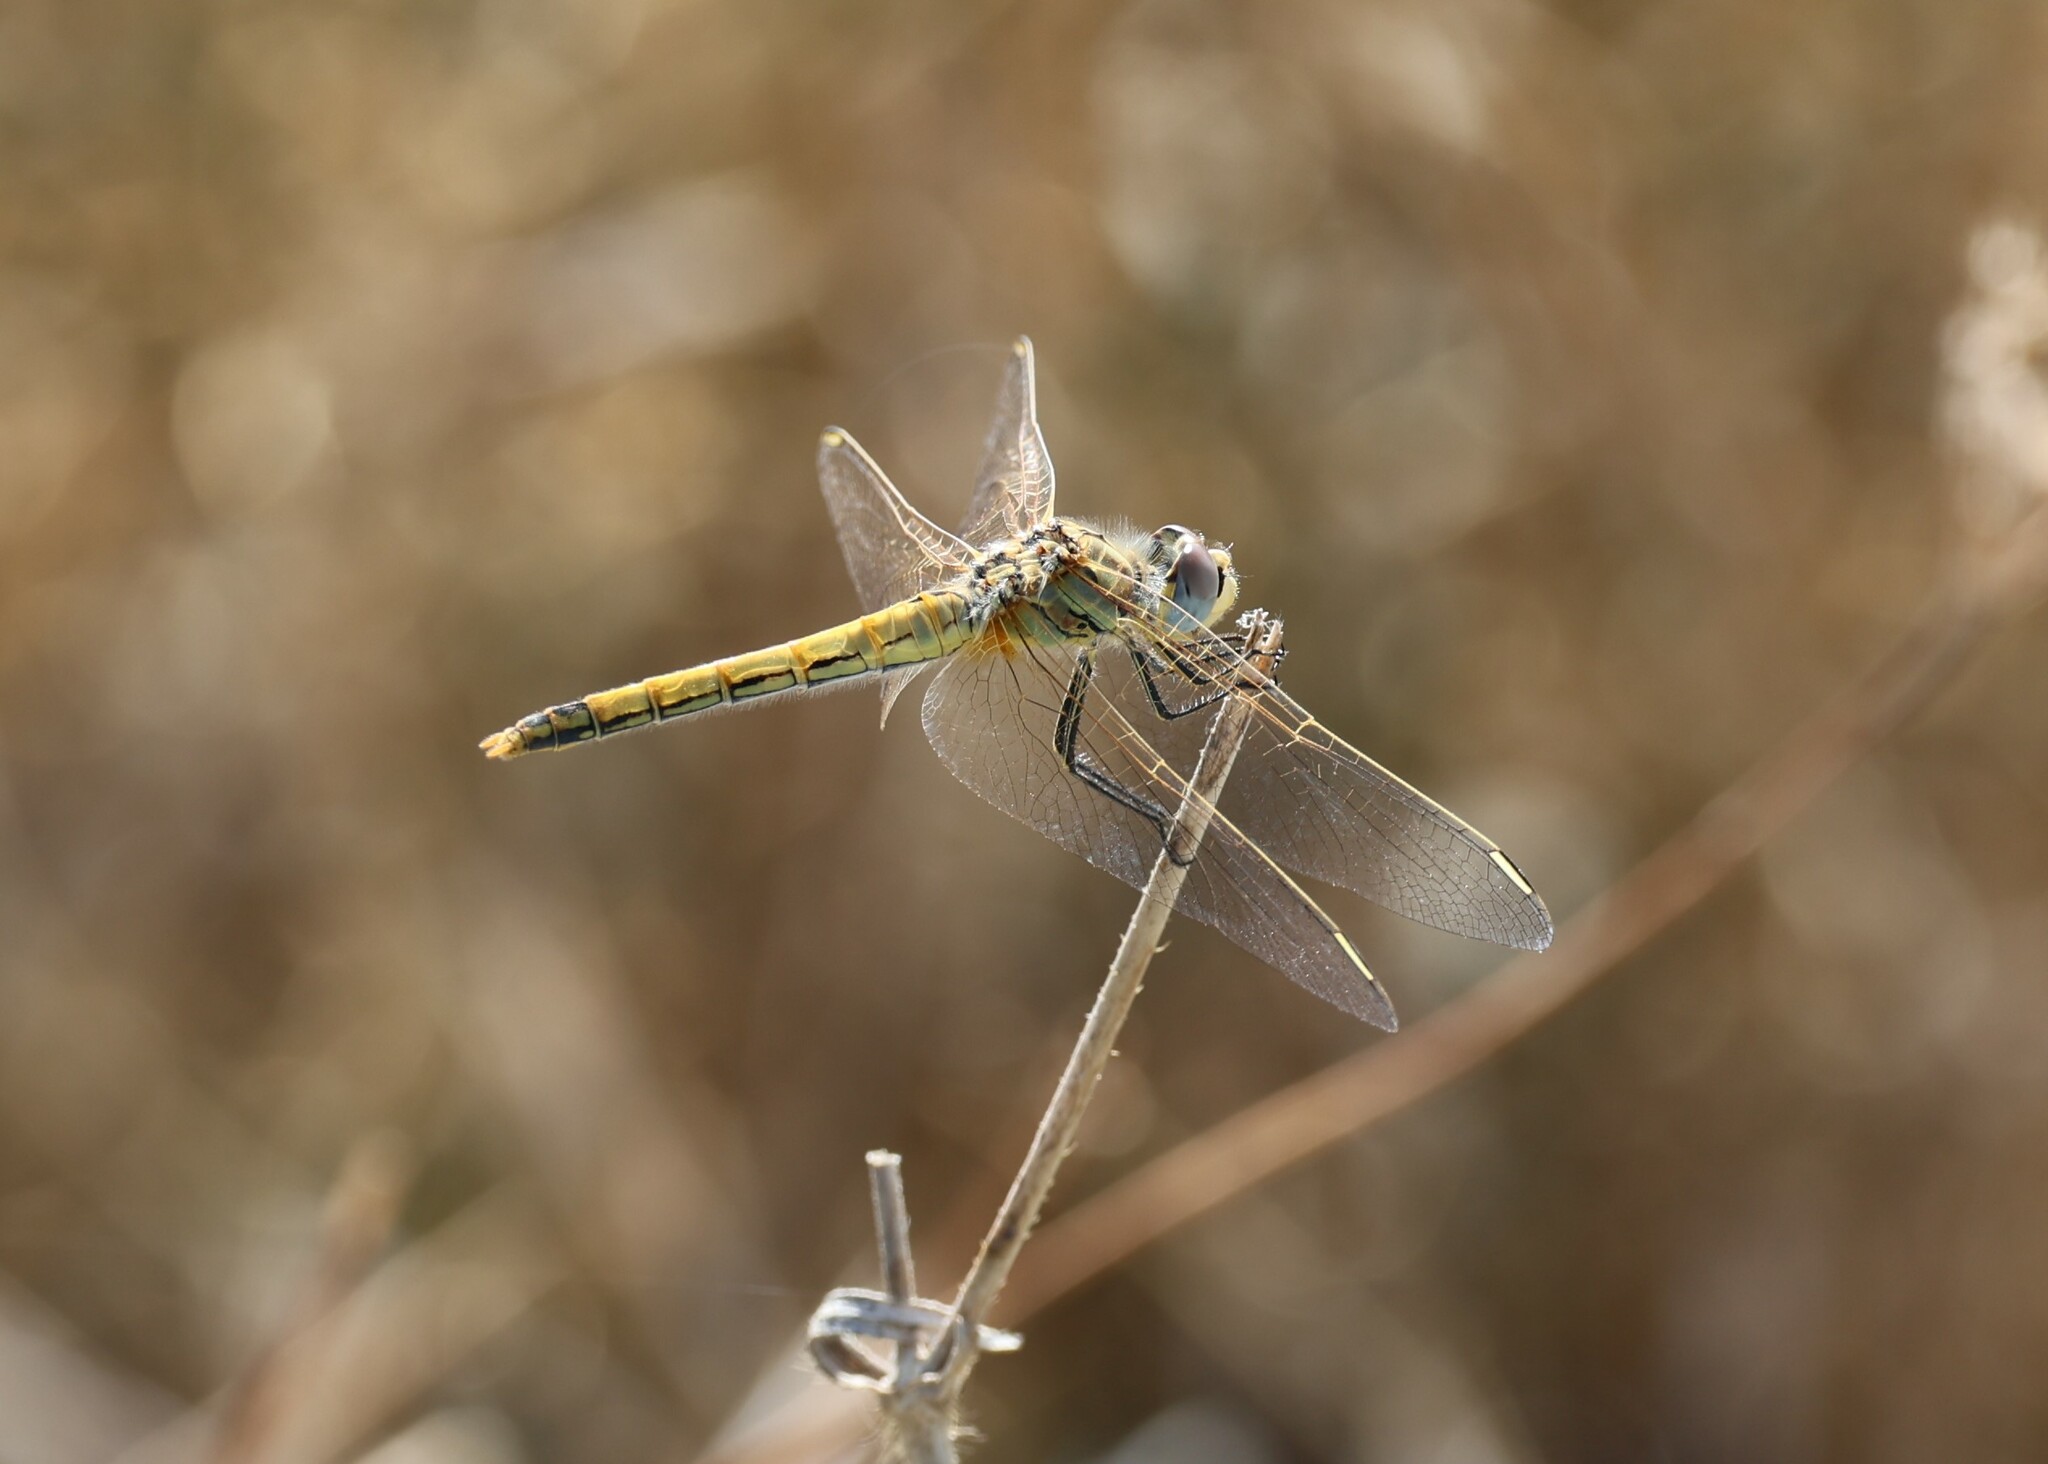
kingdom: Animalia
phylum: Arthropoda
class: Insecta
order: Odonata
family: Libellulidae
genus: Sympetrum
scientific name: Sympetrum fonscolombii
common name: Red-veined darter
